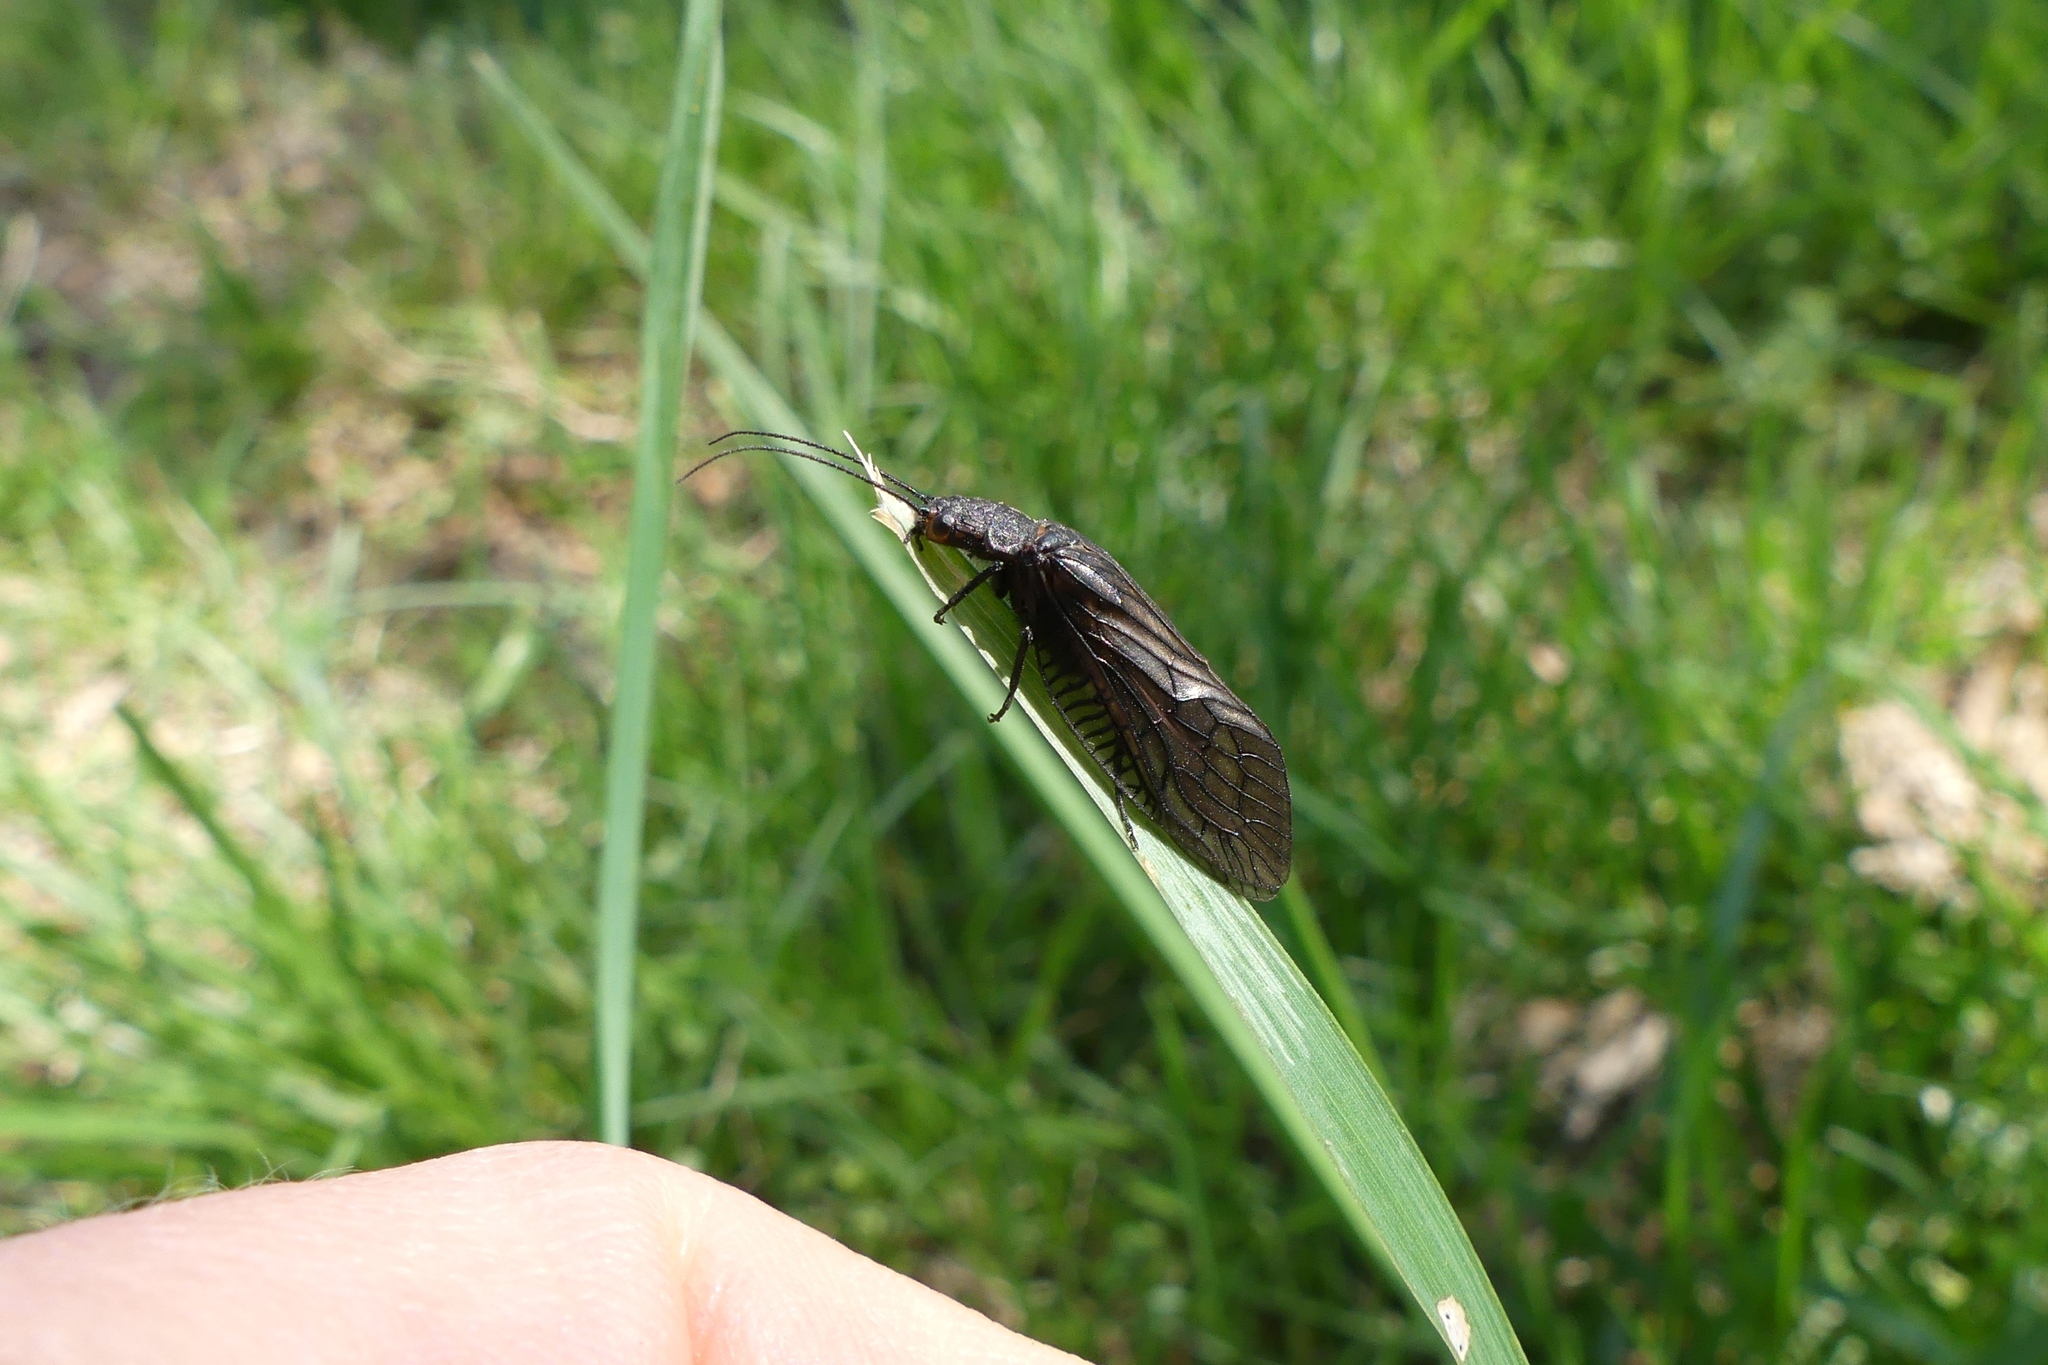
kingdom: Animalia
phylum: Arthropoda
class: Insecta
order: Megaloptera
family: Sialidae
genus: Sialis
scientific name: Sialis
